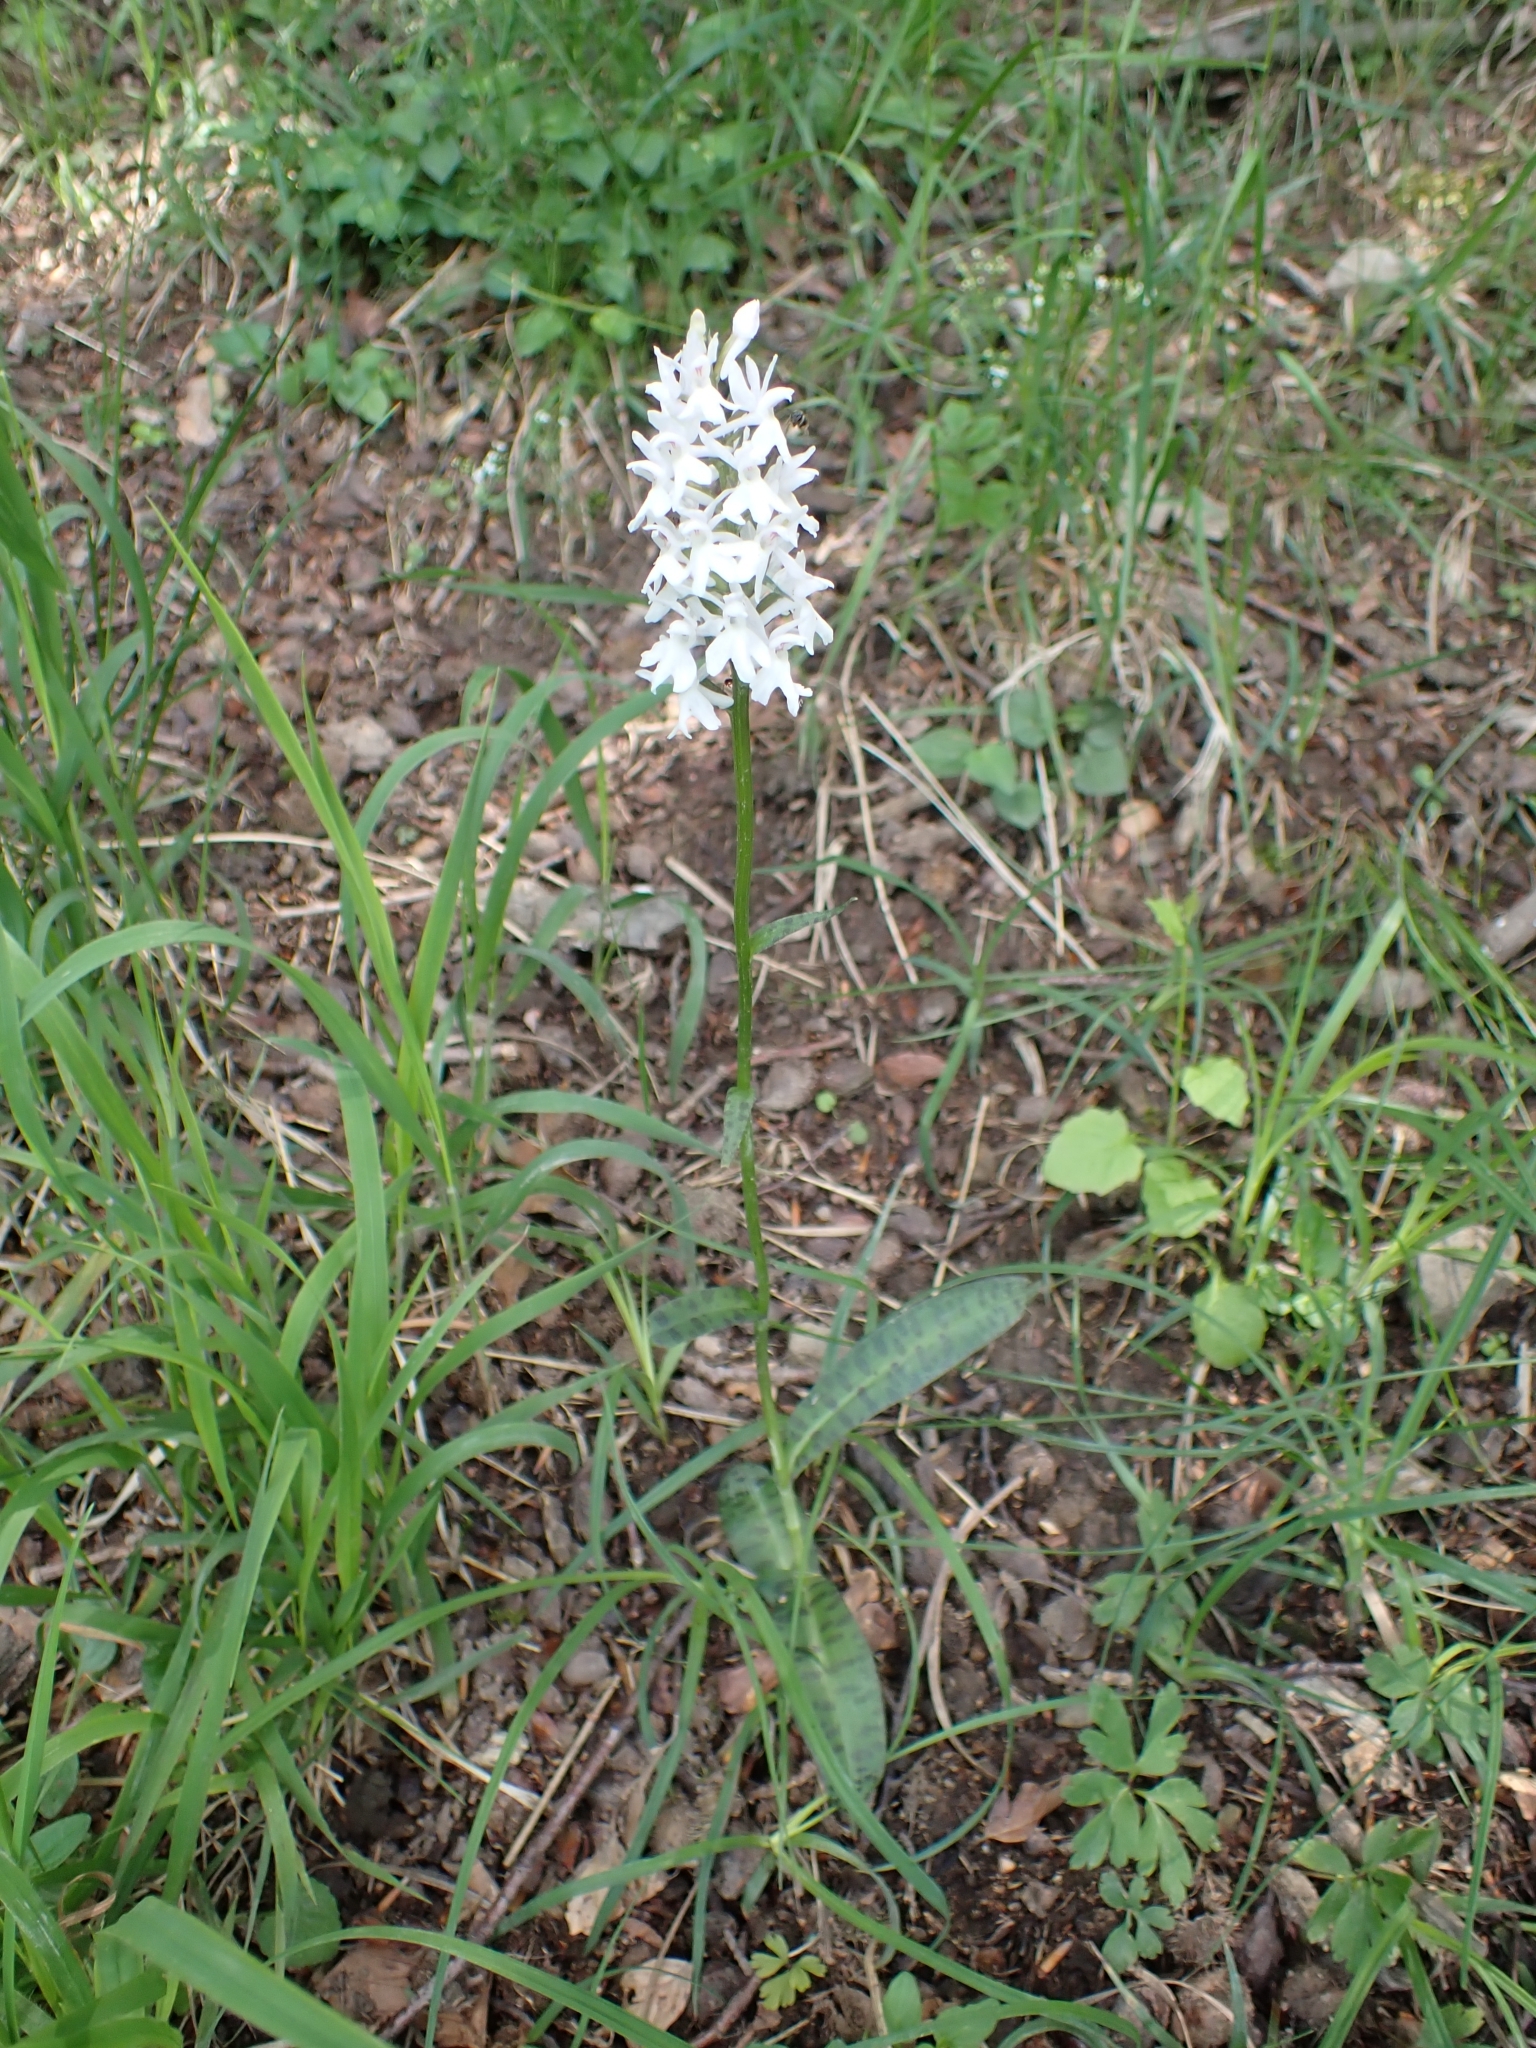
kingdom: Plantae
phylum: Tracheophyta
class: Liliopsida
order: Asparagales
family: Orchidaceae
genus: Dactylorhiza
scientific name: Dactylorhiza maculata
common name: Heath spotted-orchid
